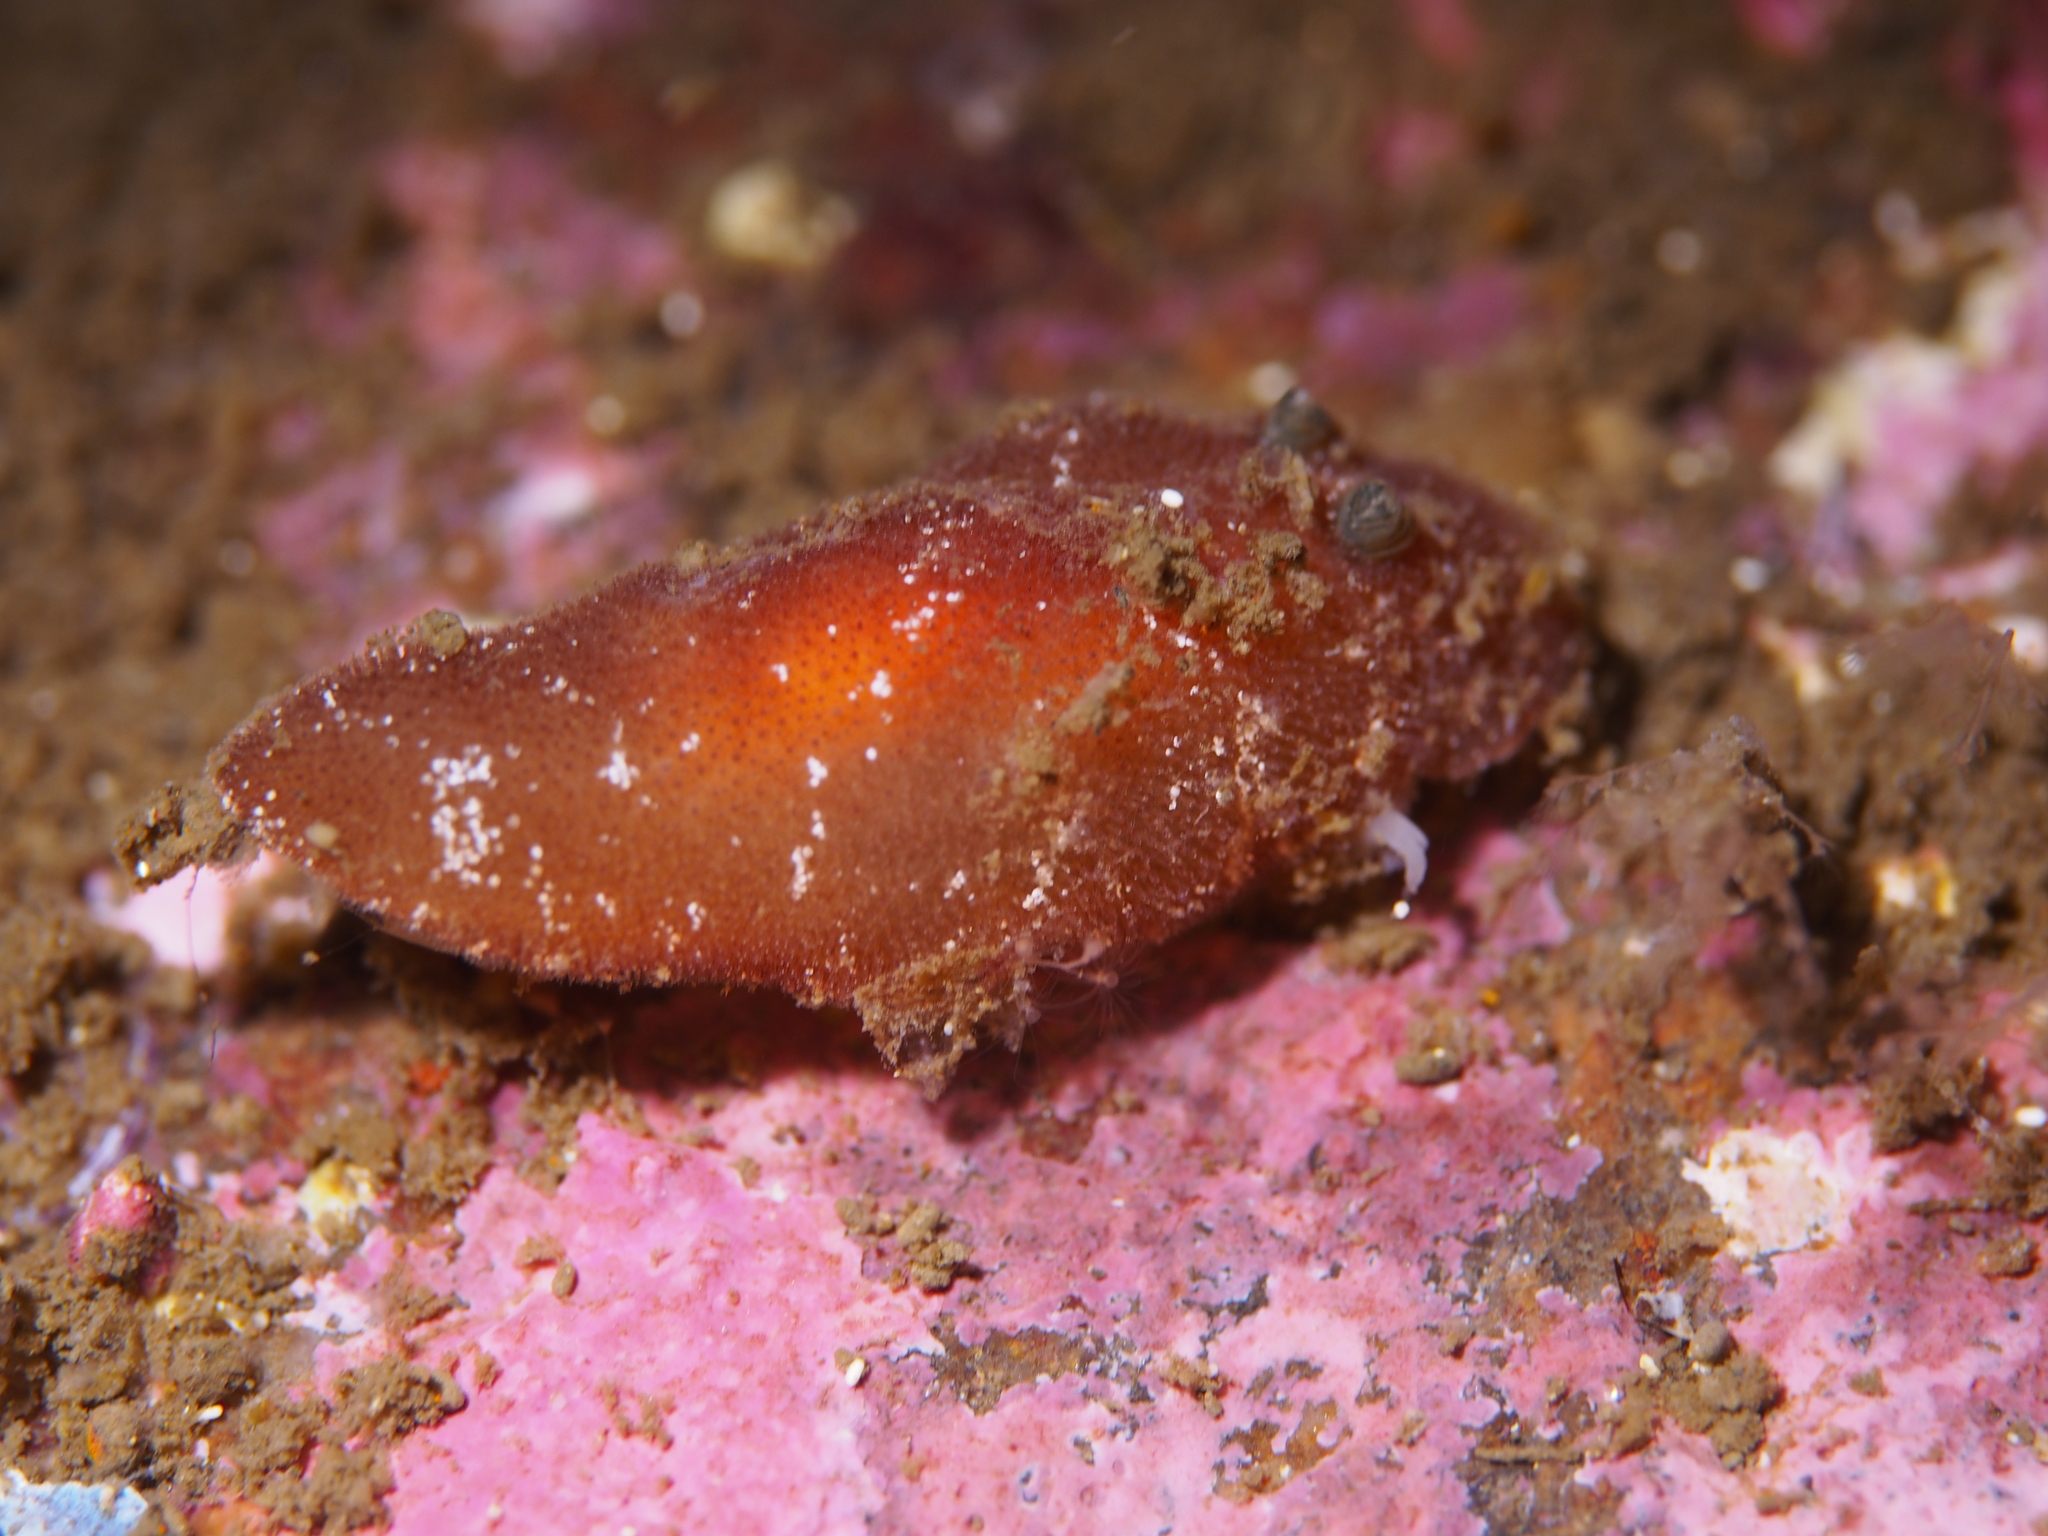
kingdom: Animalia
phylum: Mollusca
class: Gastropoda
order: Nudibranchia
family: Discodorididae
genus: Rostanga
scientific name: Rostanga rubra
